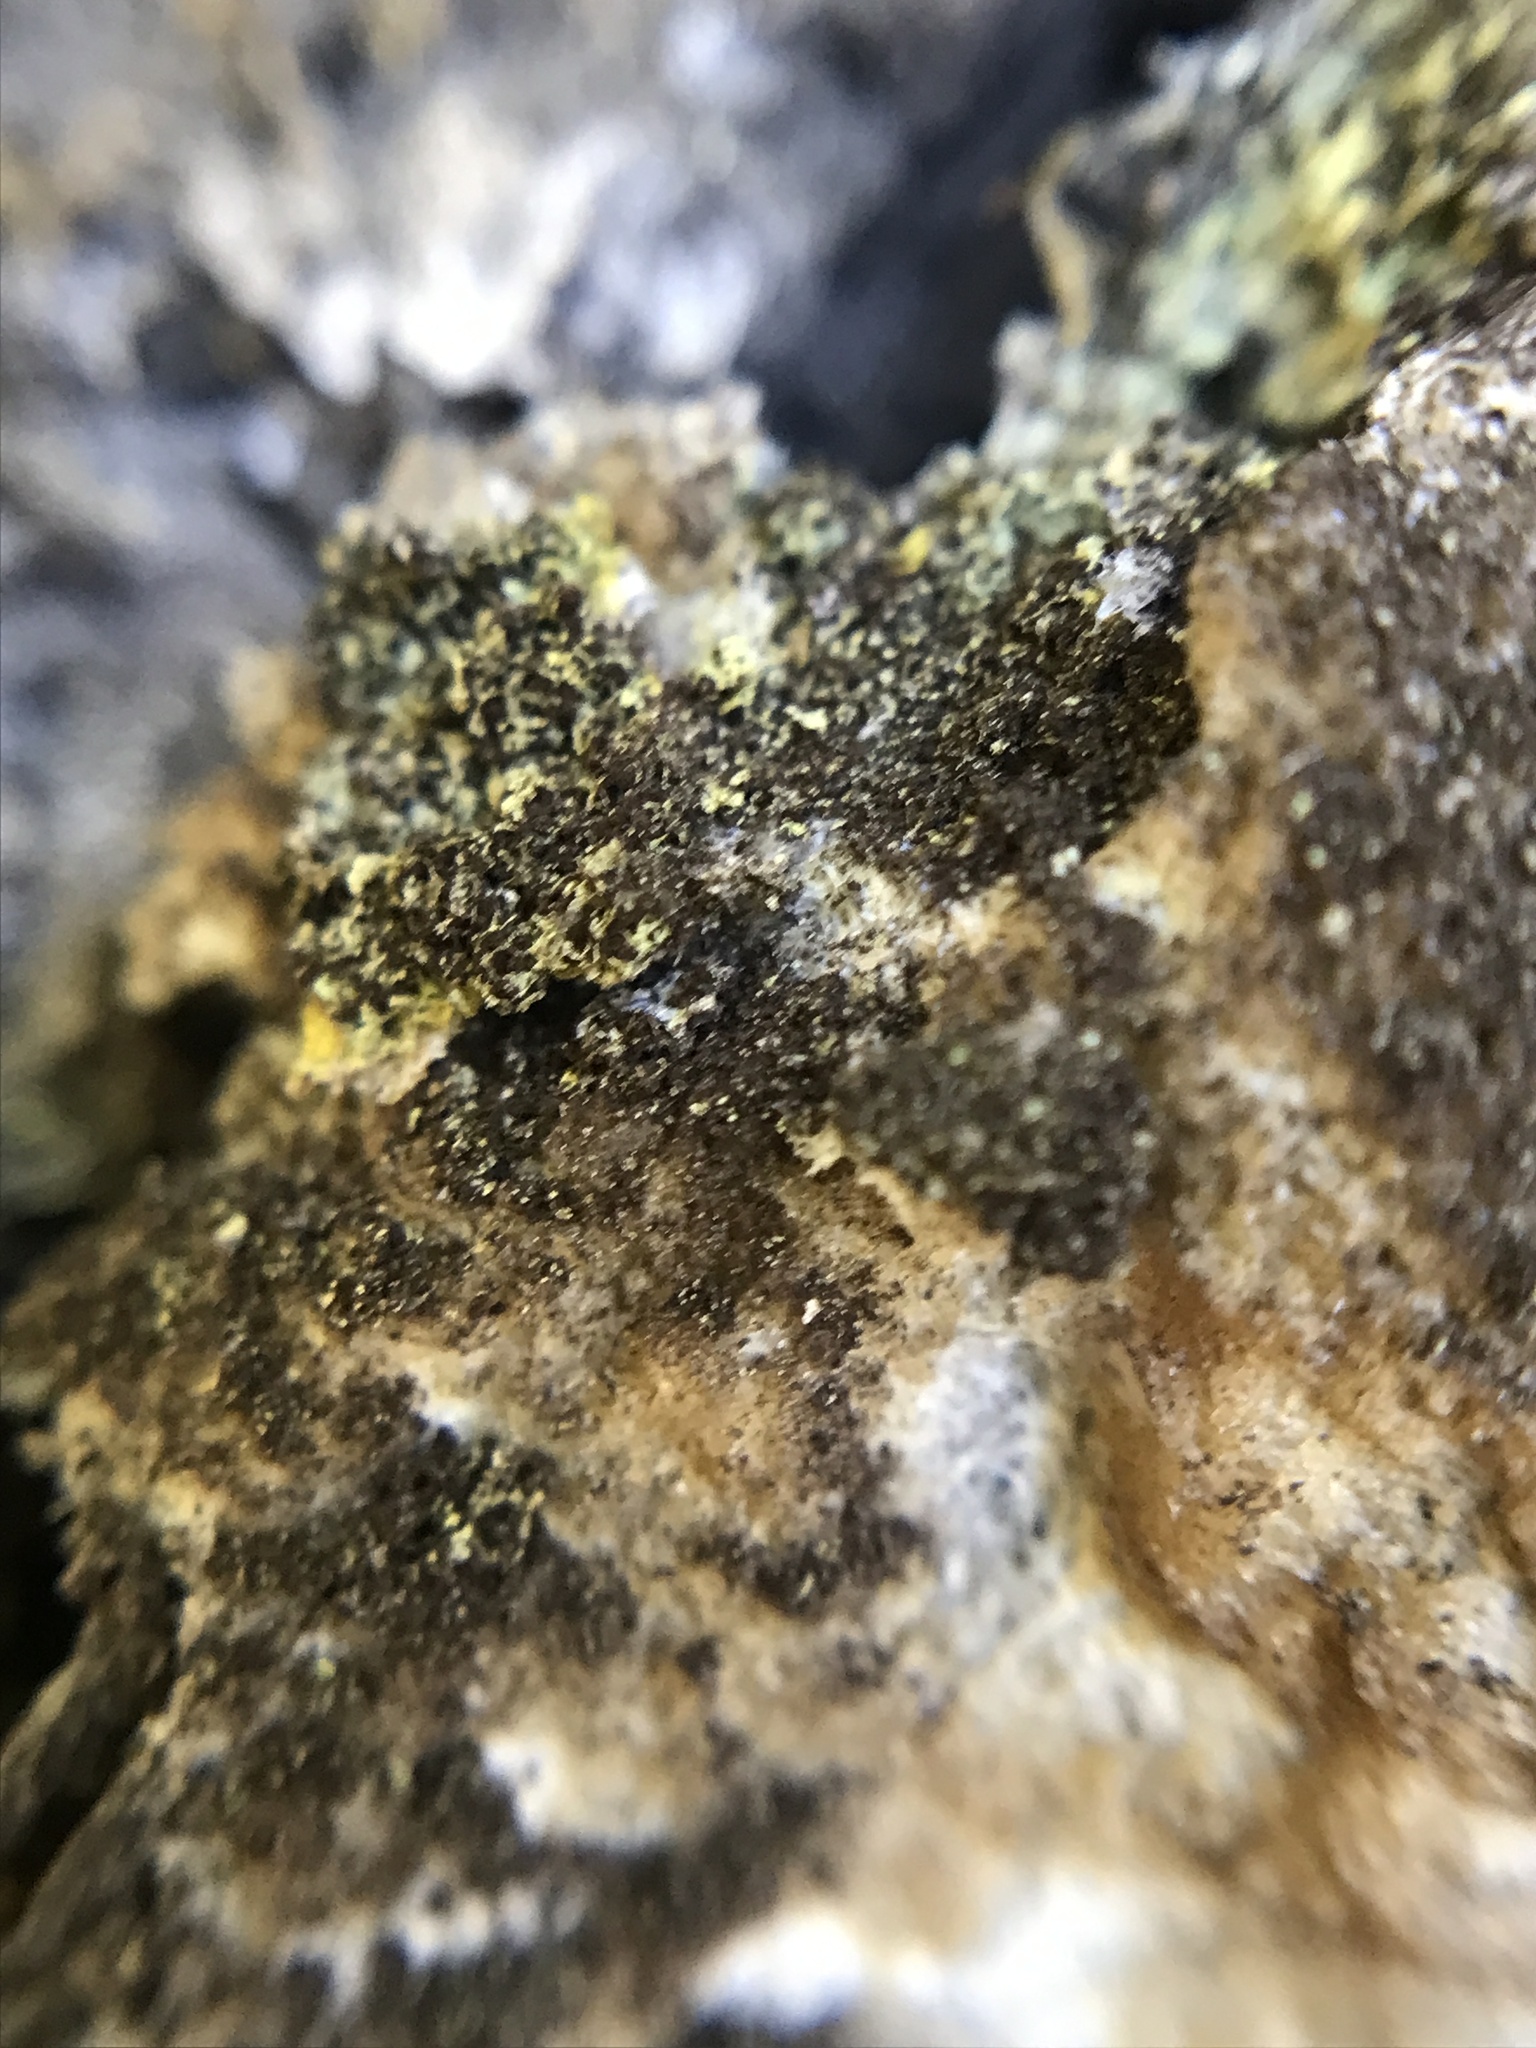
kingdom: Protozoa
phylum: Mycetozoa
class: Myxomycetes
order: Physarales
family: Physaraceae
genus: Fuligo
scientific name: Fuligo septica
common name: Dog vomit slime mold
